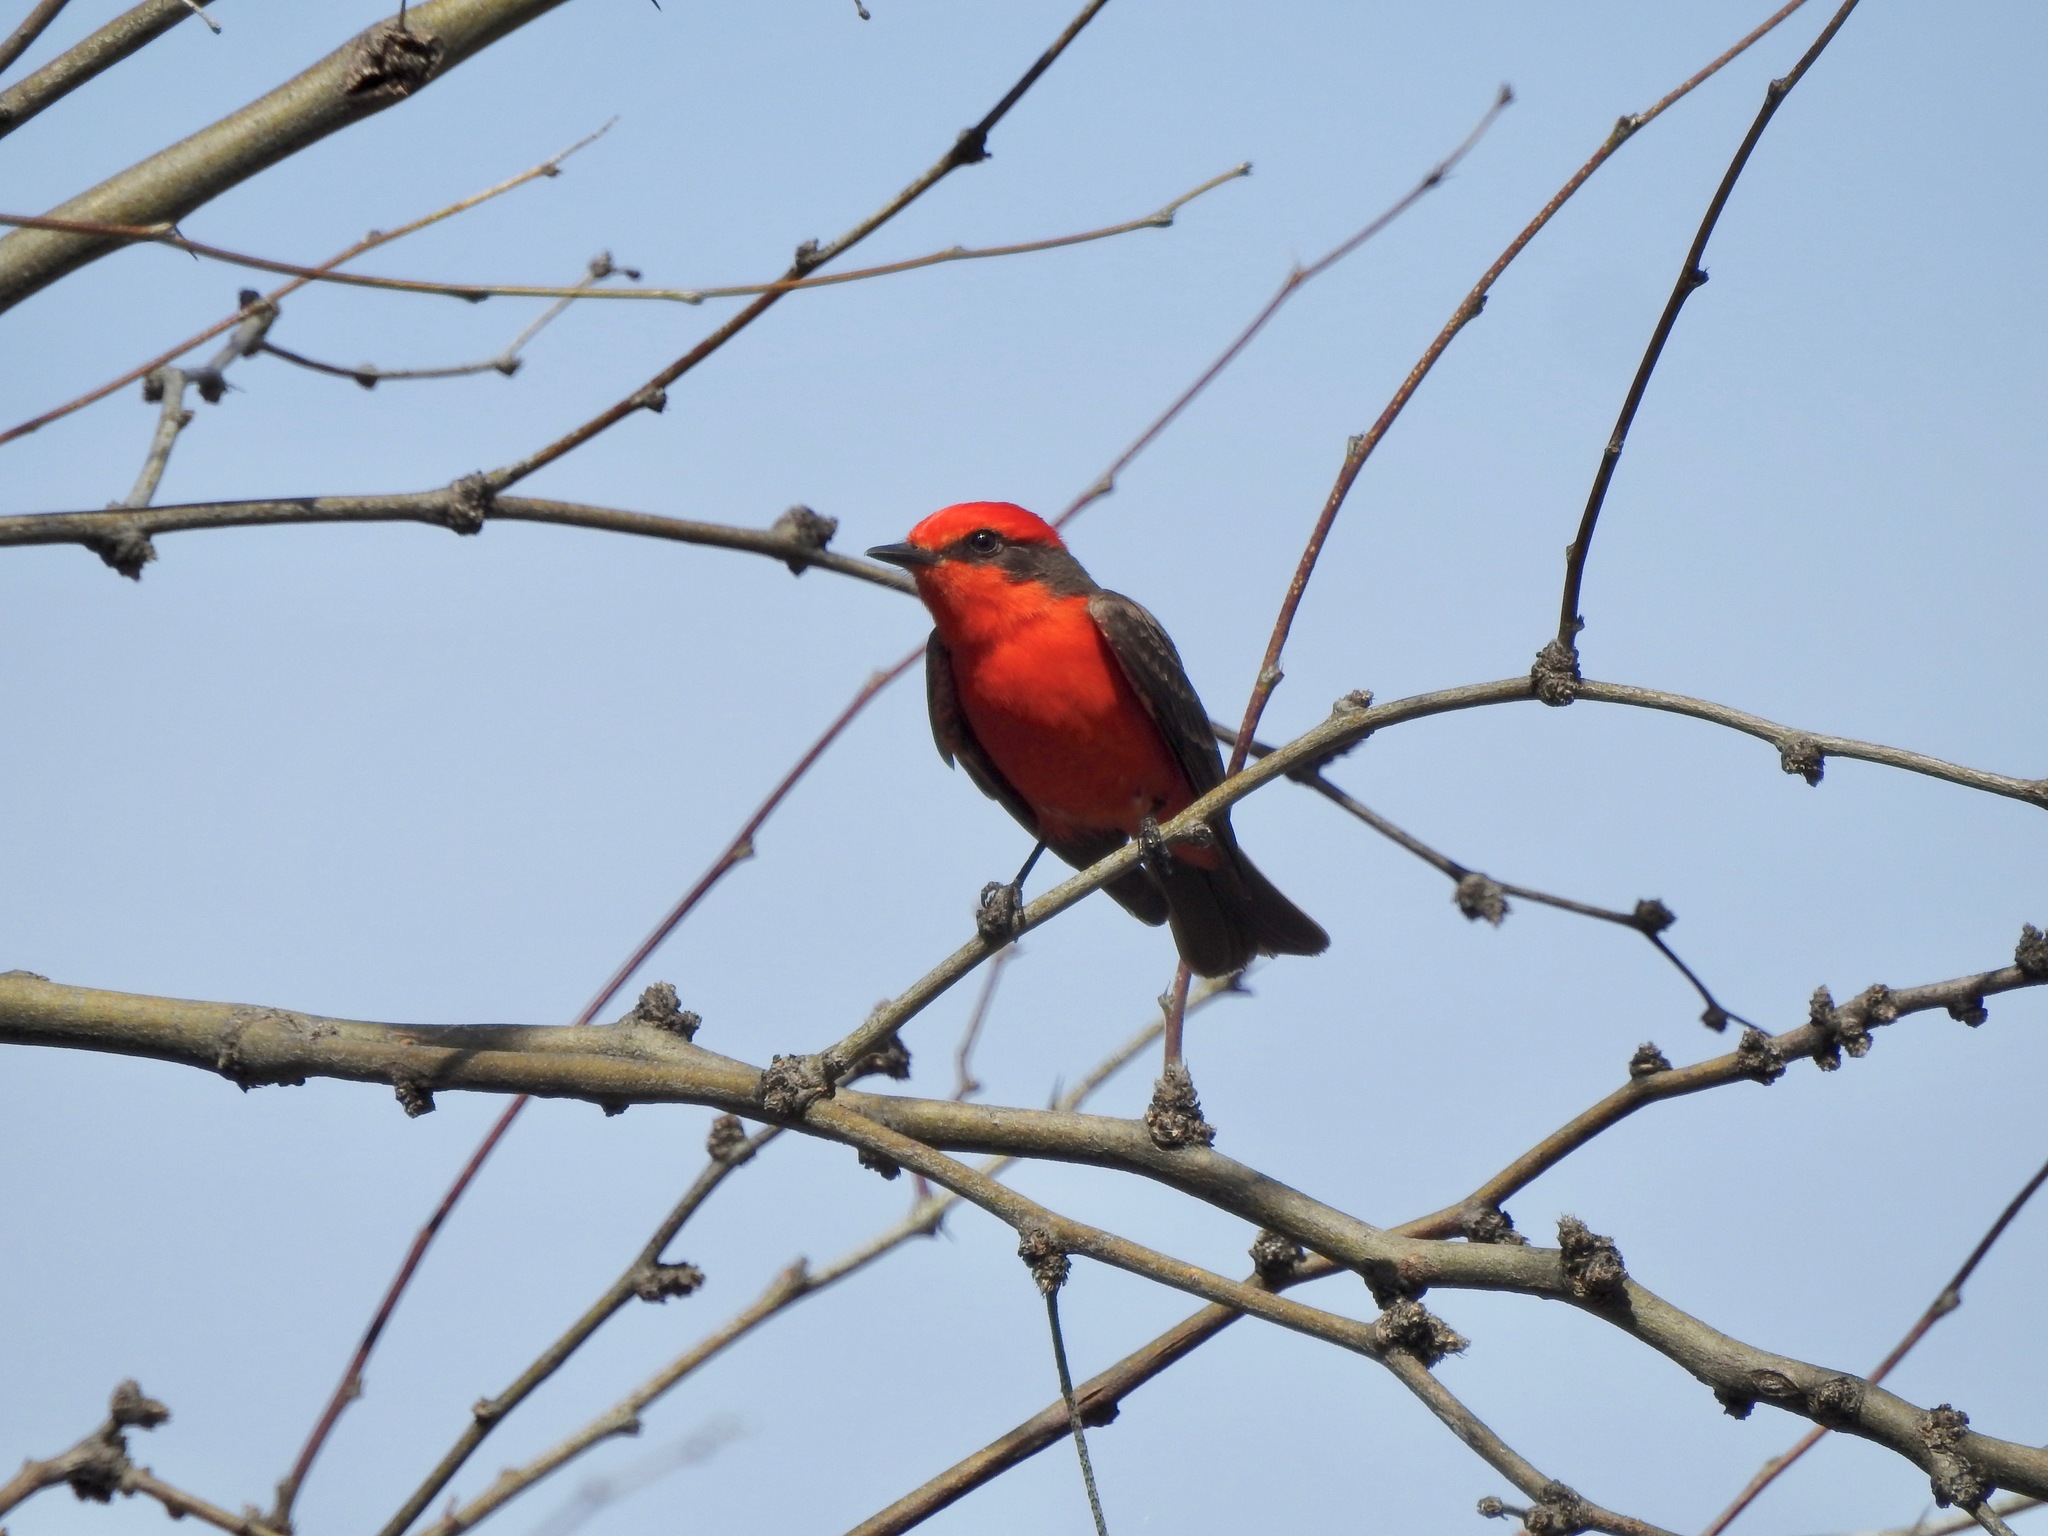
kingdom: Animalia
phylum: Chordata
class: Aves
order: Passeriformes
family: Tyrannidae
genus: Pyrocephalus
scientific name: Pyrocephalus rubinus
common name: Vermilion flycatcher
